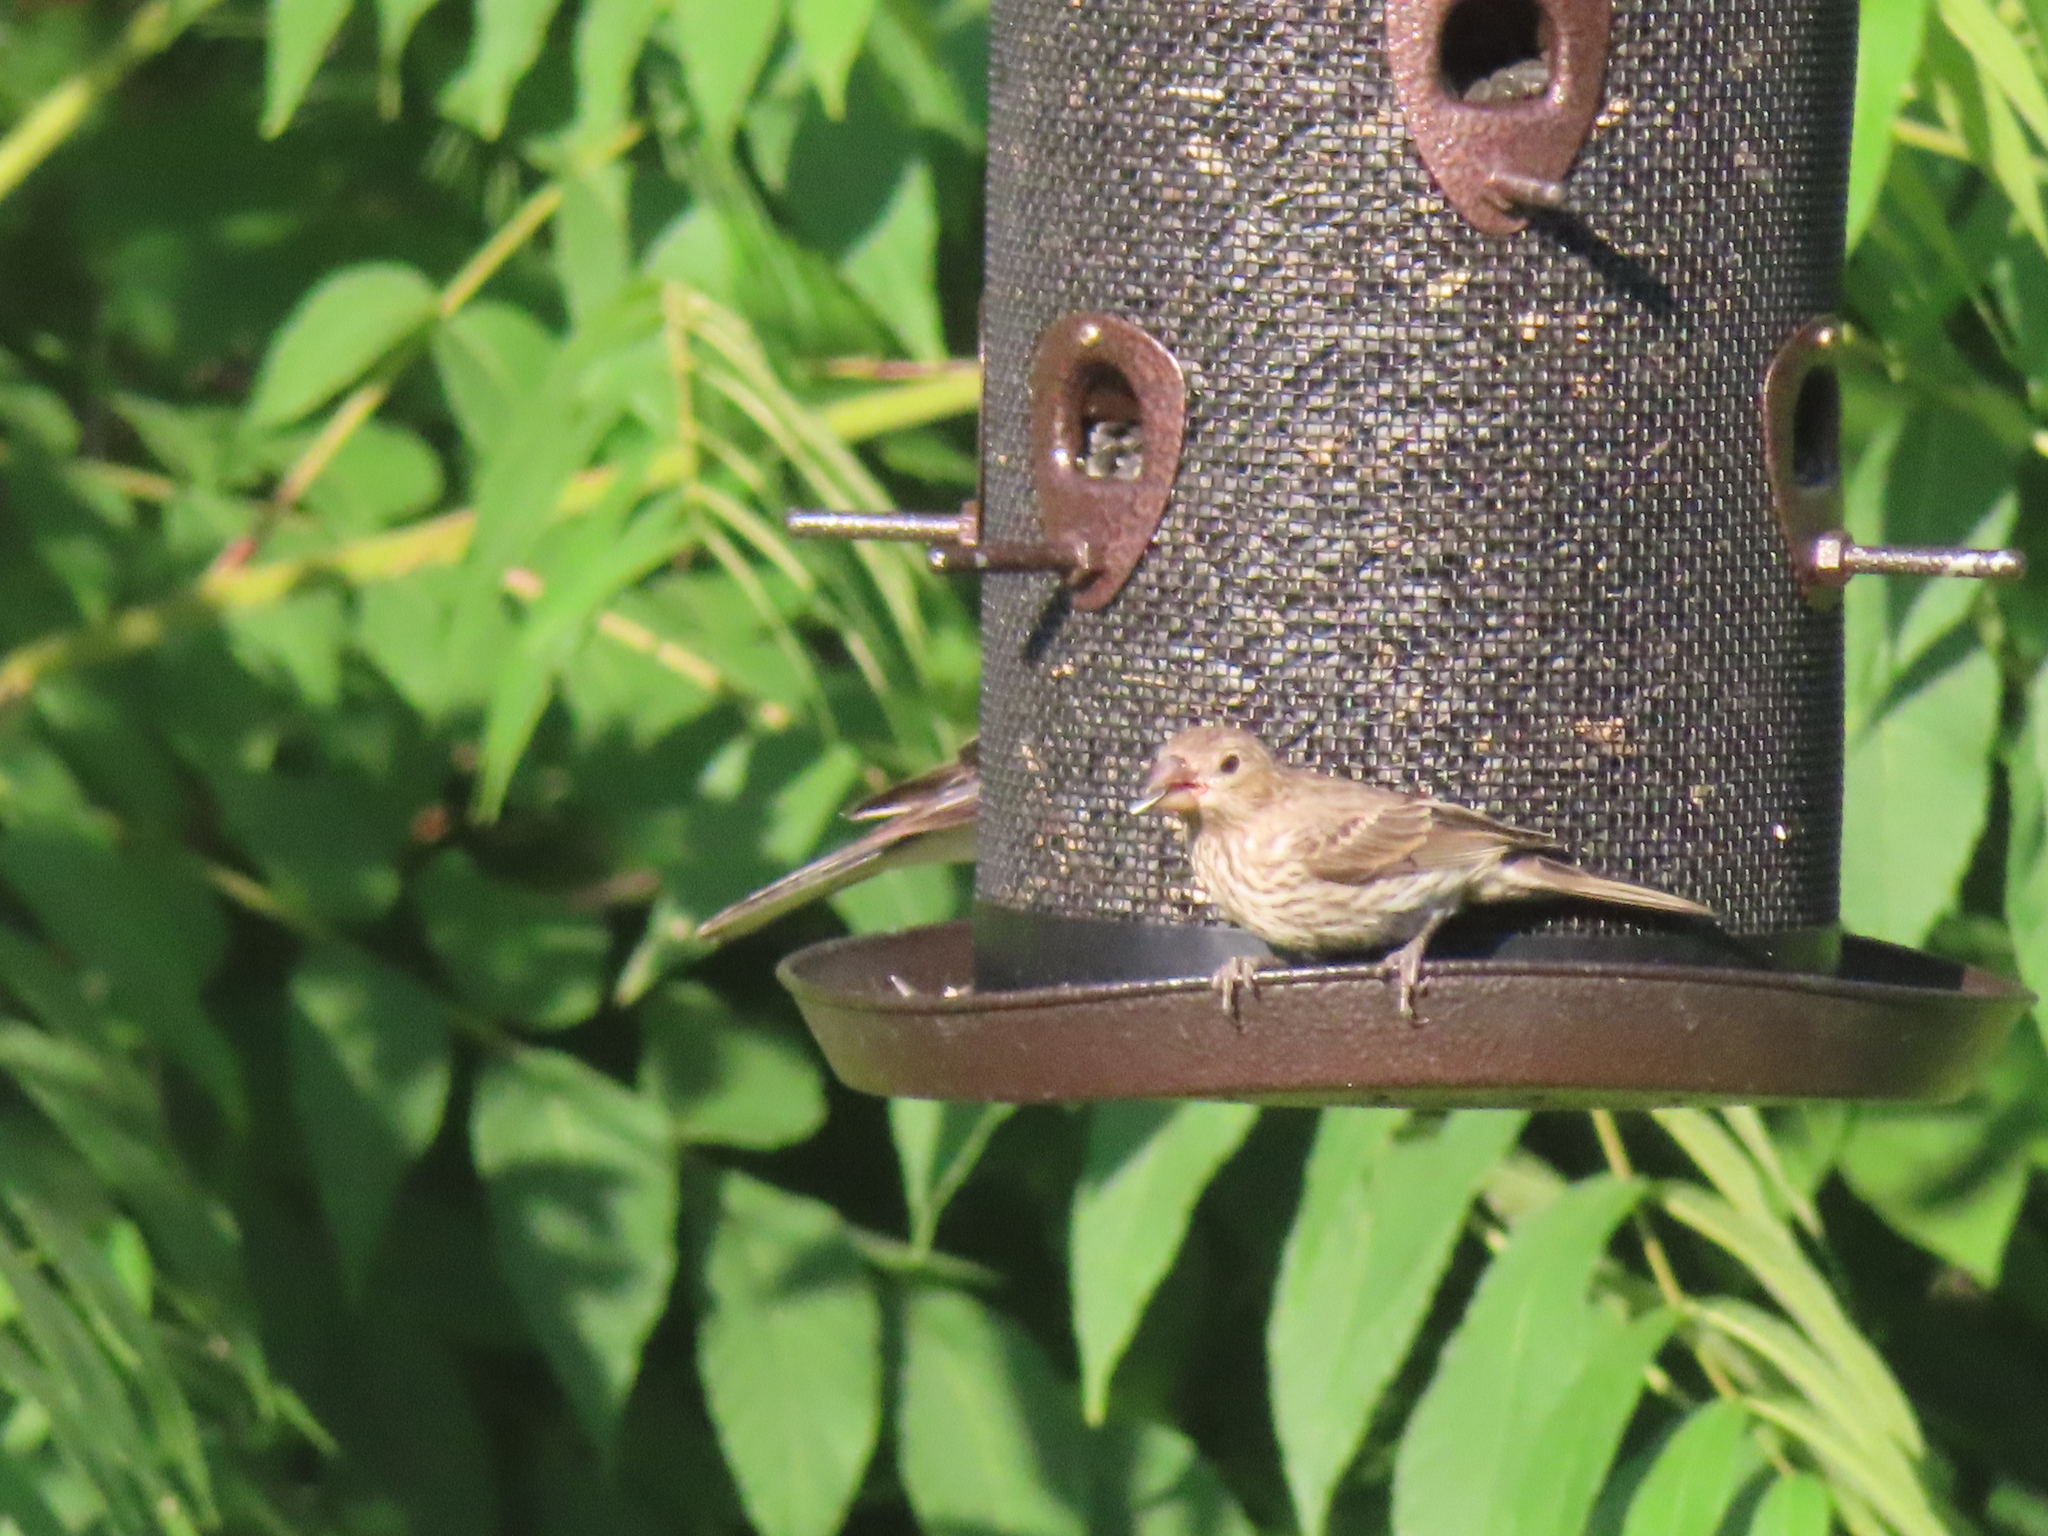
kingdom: Animalia
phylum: Chordata
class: Aves
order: Passeriformes
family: Fringillidae
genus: Haemorhous
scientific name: Haemorhous mexicanus
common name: House finch
